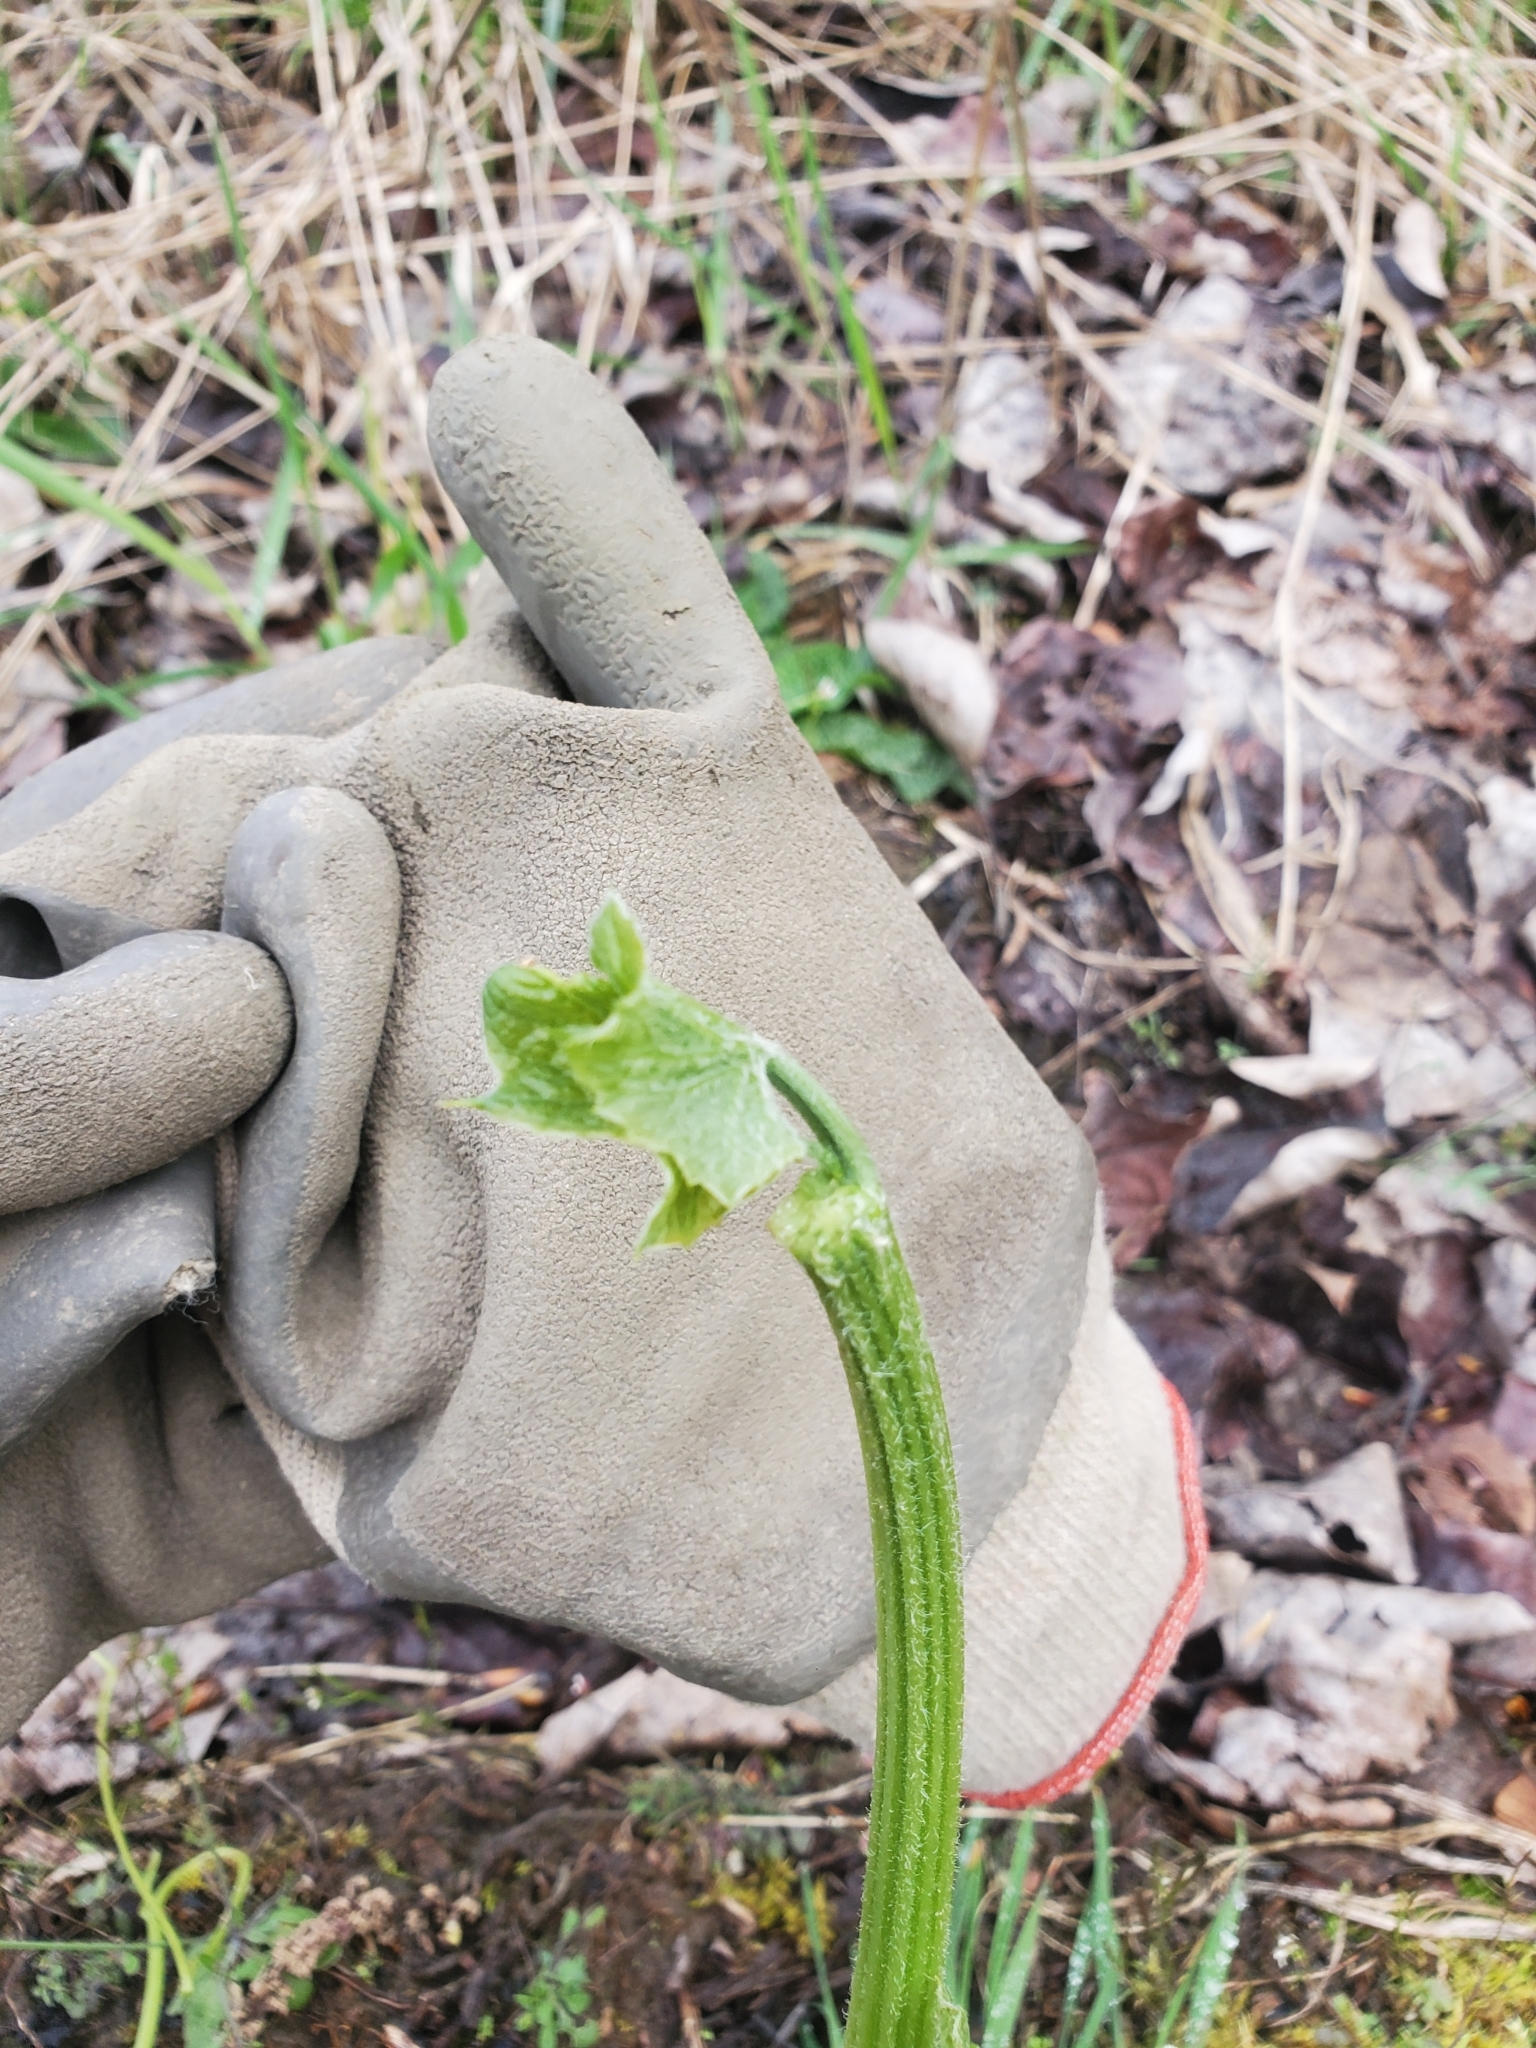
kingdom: Plantae
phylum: Tracheophyta
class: Magnoliopsida
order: Cucurbitales
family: Cucurbitaceae
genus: Marah
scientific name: Marah oregana
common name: Coastal manroot
